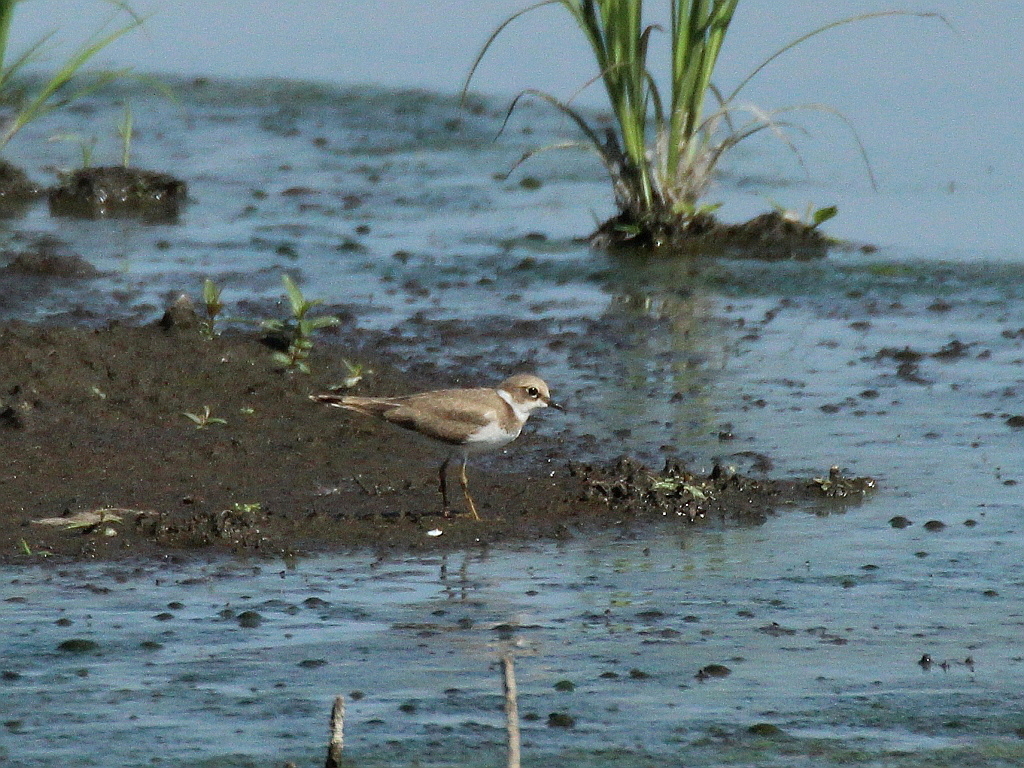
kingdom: Animalia
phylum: Chordata
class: Aves
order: Charadriiformes
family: Charadriidae
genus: Charadrius
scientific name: Charadrius dubius
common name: Little ringed plover
